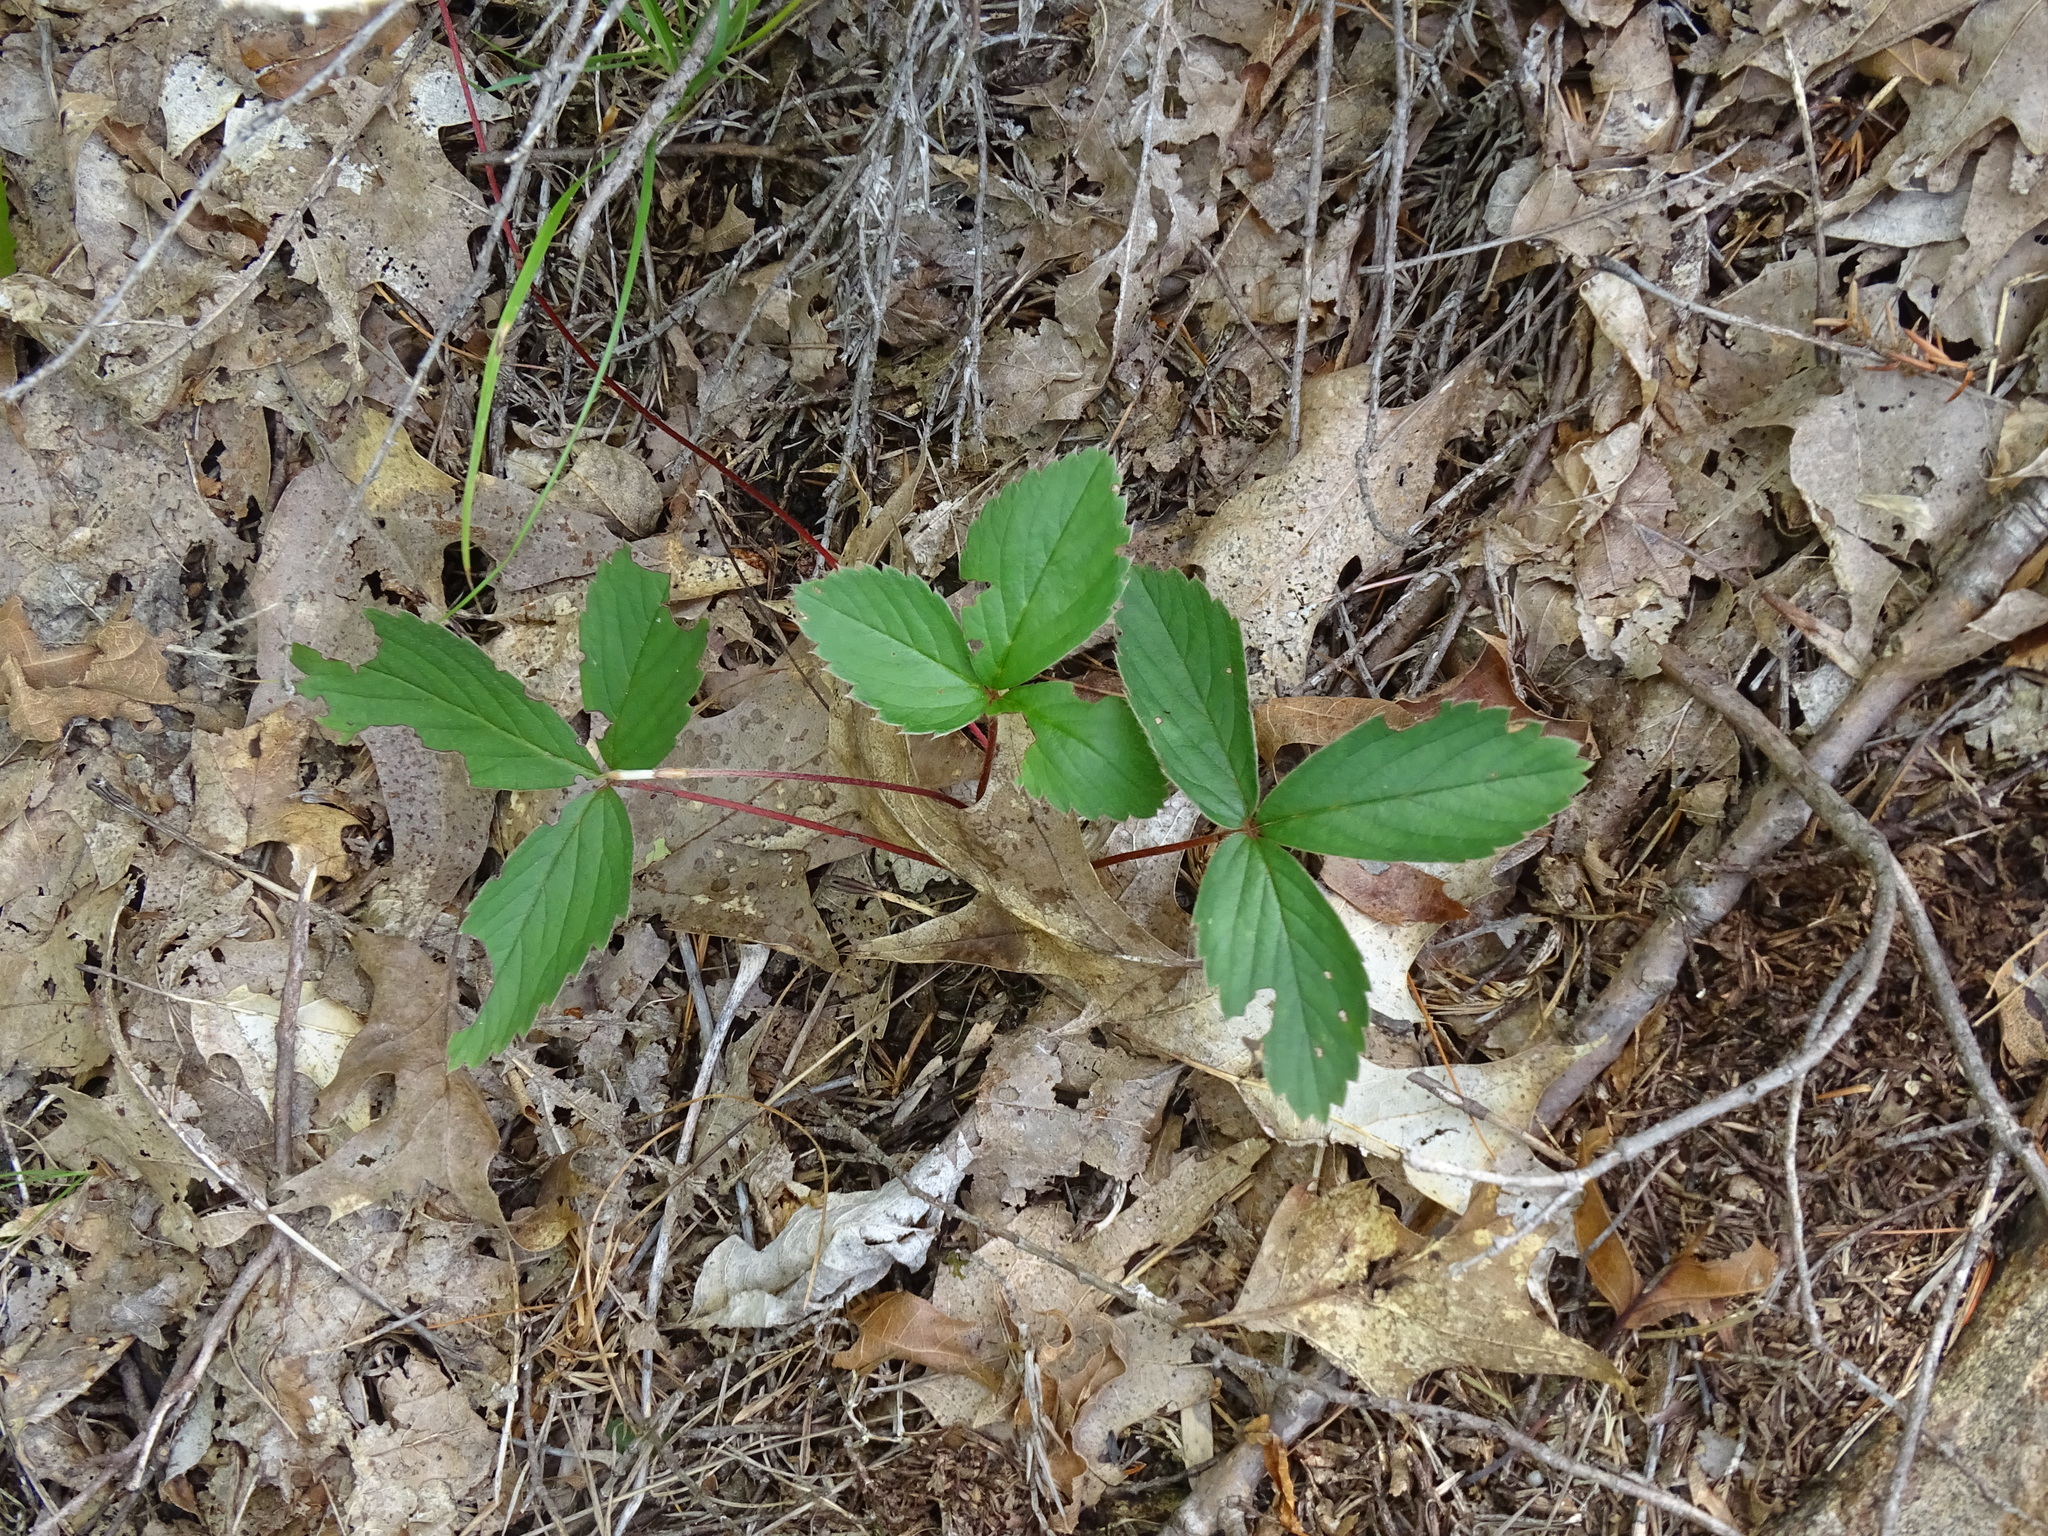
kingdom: Plantae
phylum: Tracheophyta
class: Magnoliopsida
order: Rosales
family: Rosaceae
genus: Fragaria
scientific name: Fragaria virginiana
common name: Thickleaved wild strawberry
